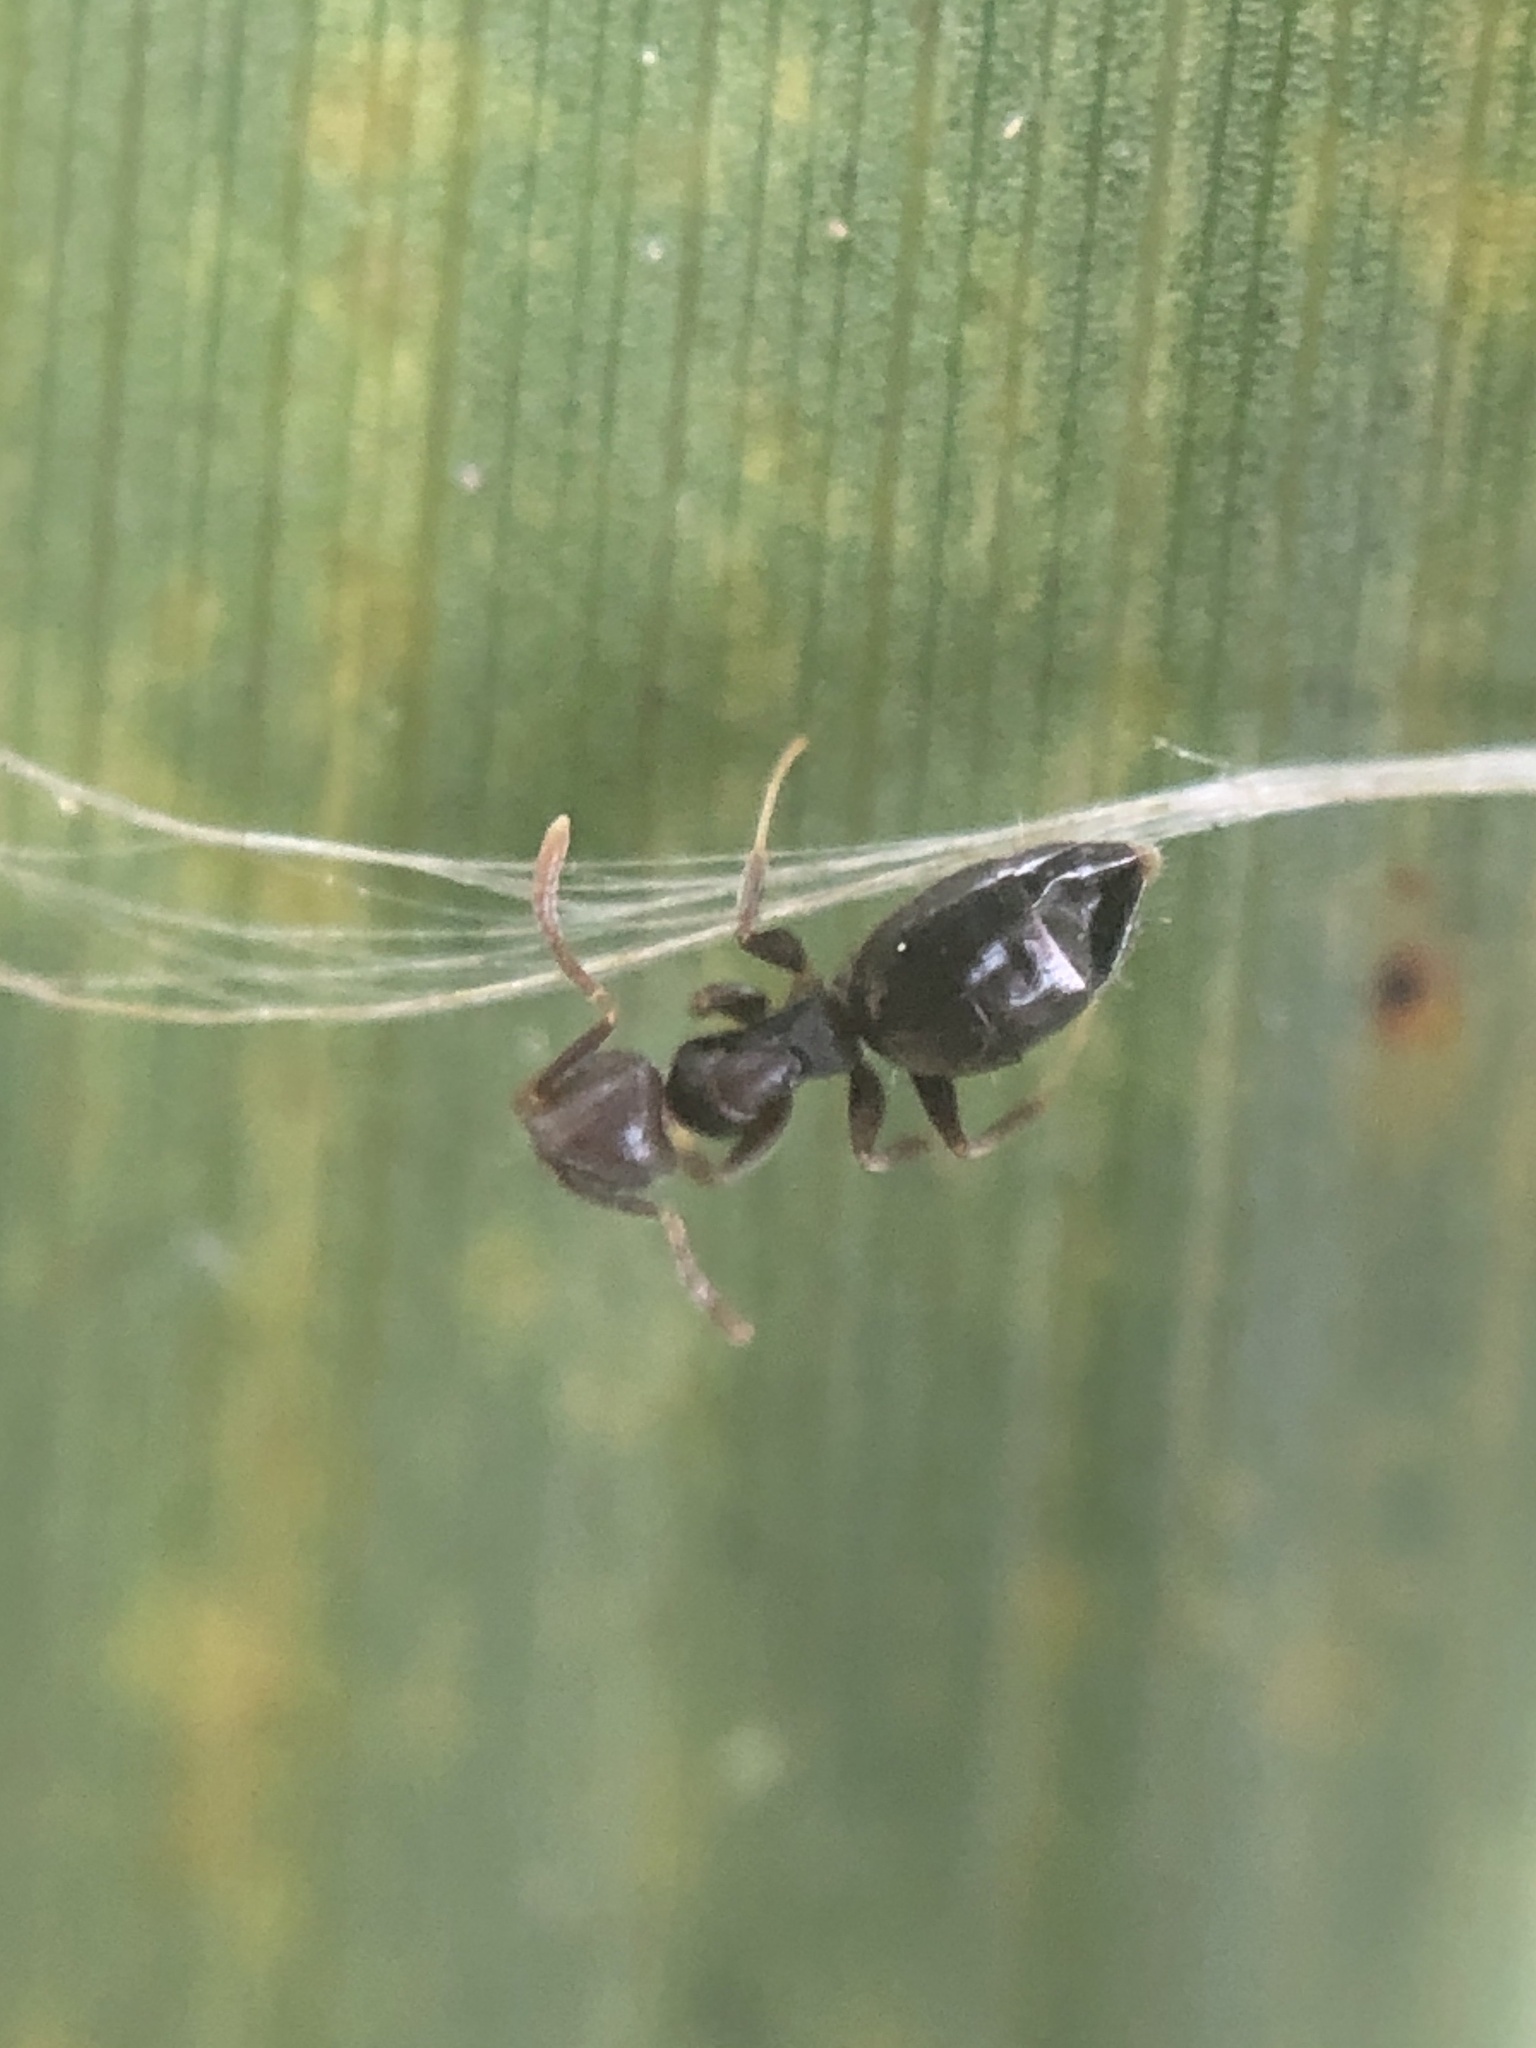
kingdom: Animalia
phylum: Arthropoda
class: Insecta
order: Hymenoptera
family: Formicidae
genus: Technomyrmex
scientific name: Technomyrmex difficilis
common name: Ant
